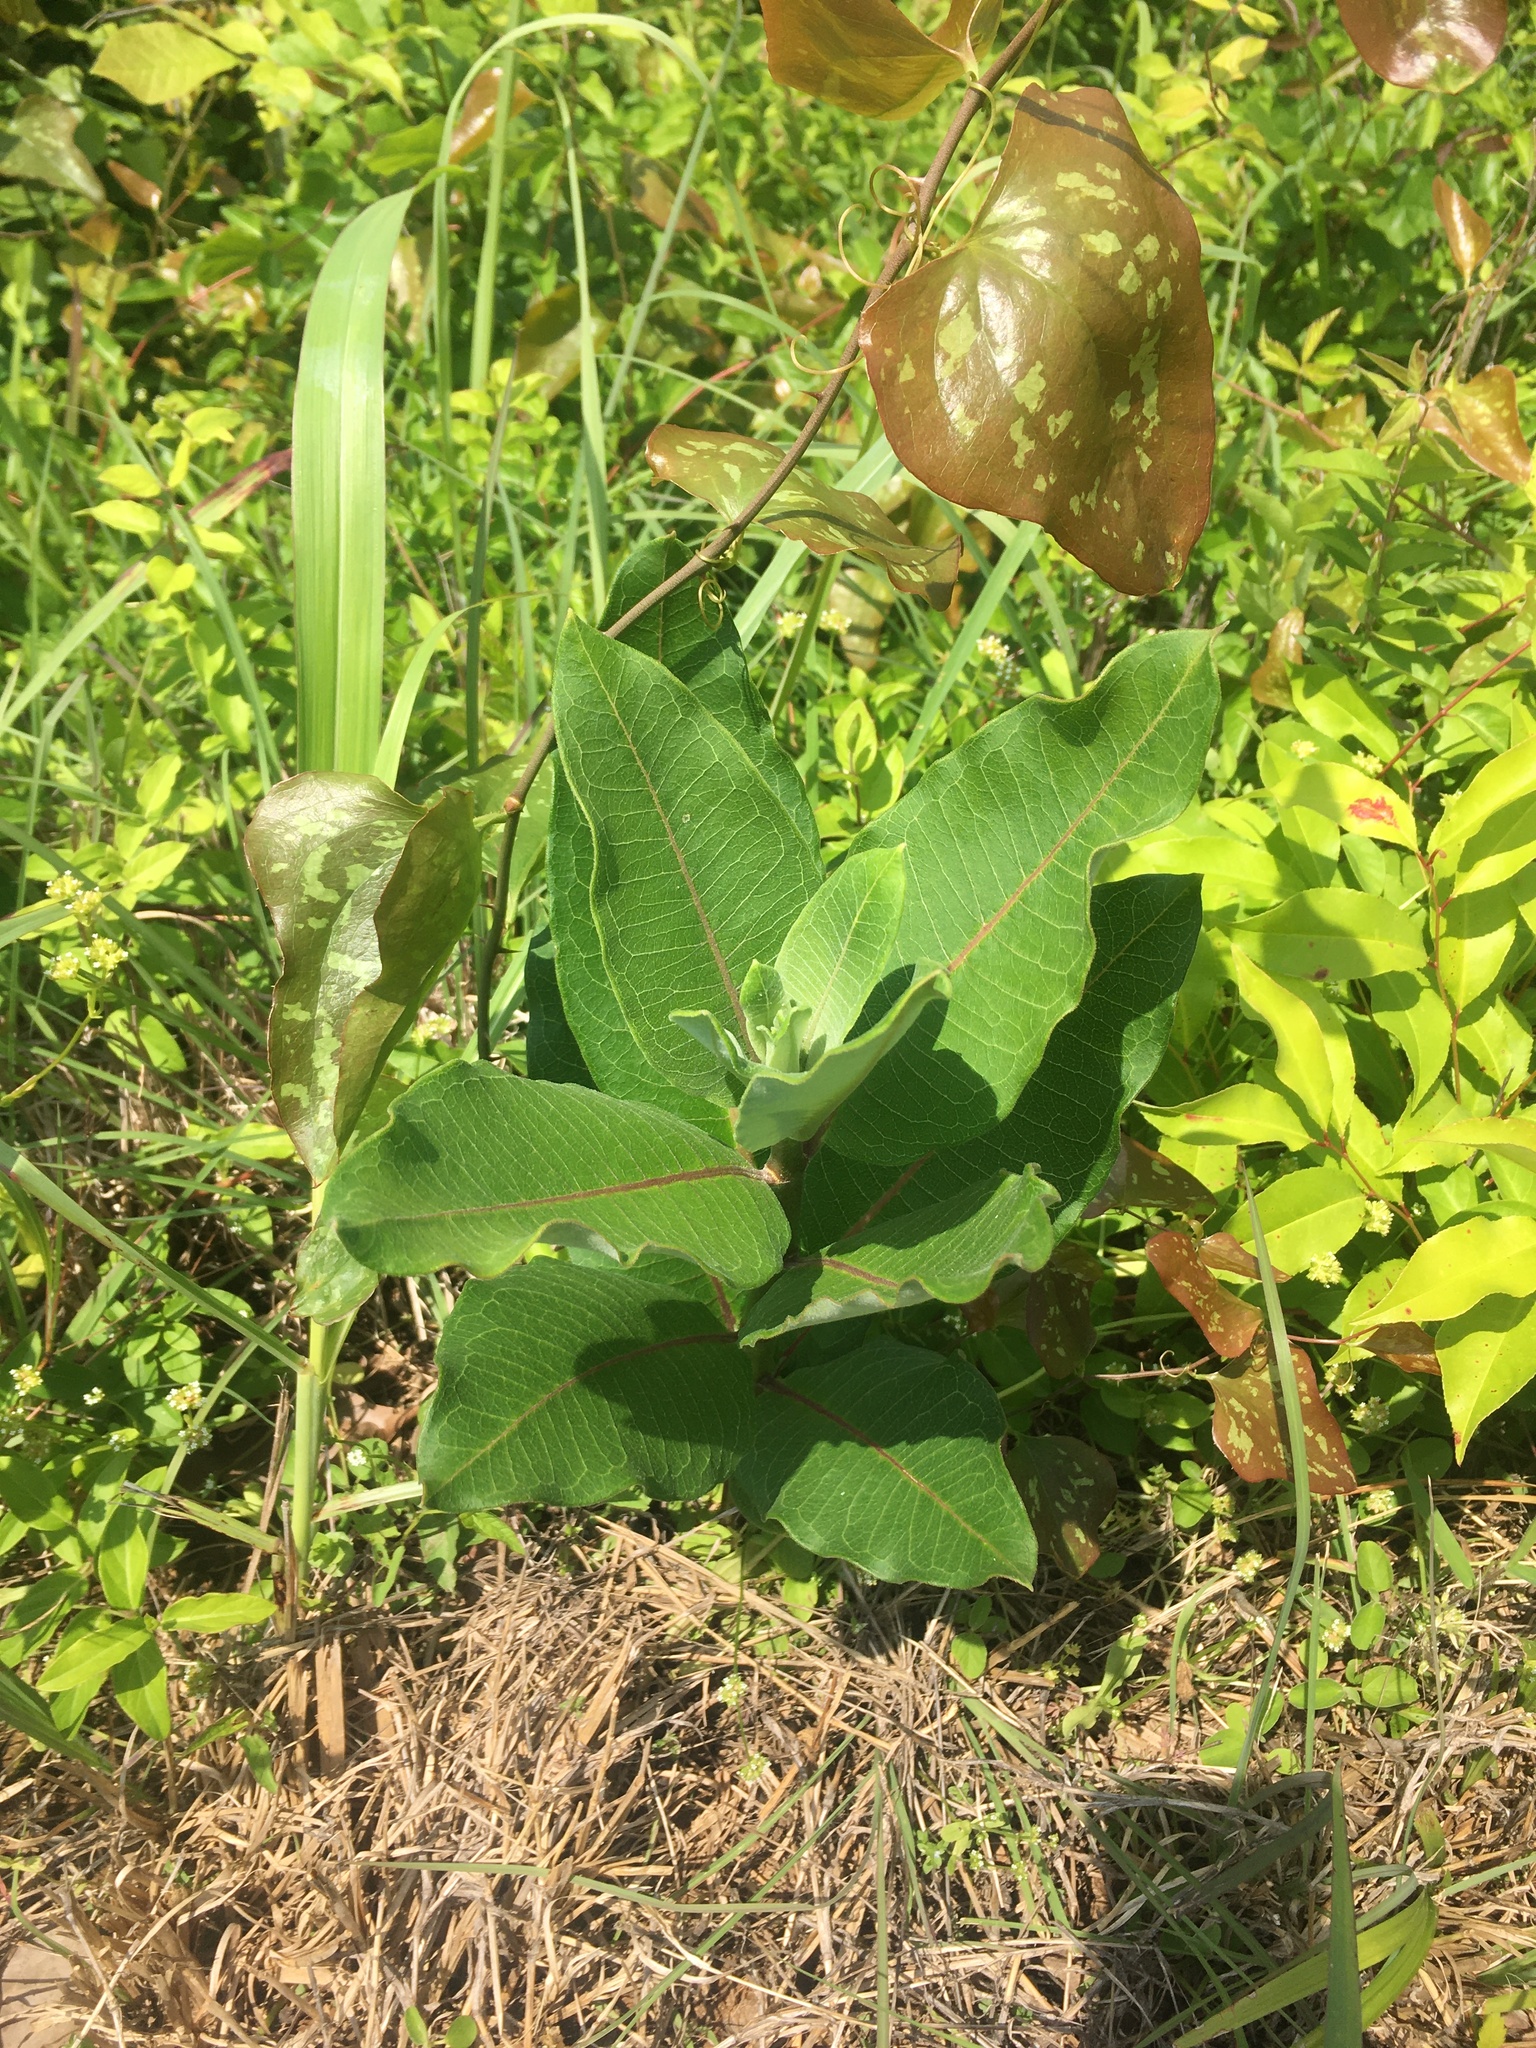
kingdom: Plantae
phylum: Tracheophyta
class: Magnoliopsida
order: Gentianales
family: Apocynaceae
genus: Asclepias
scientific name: Asclepias syriaca
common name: Common milkweed
